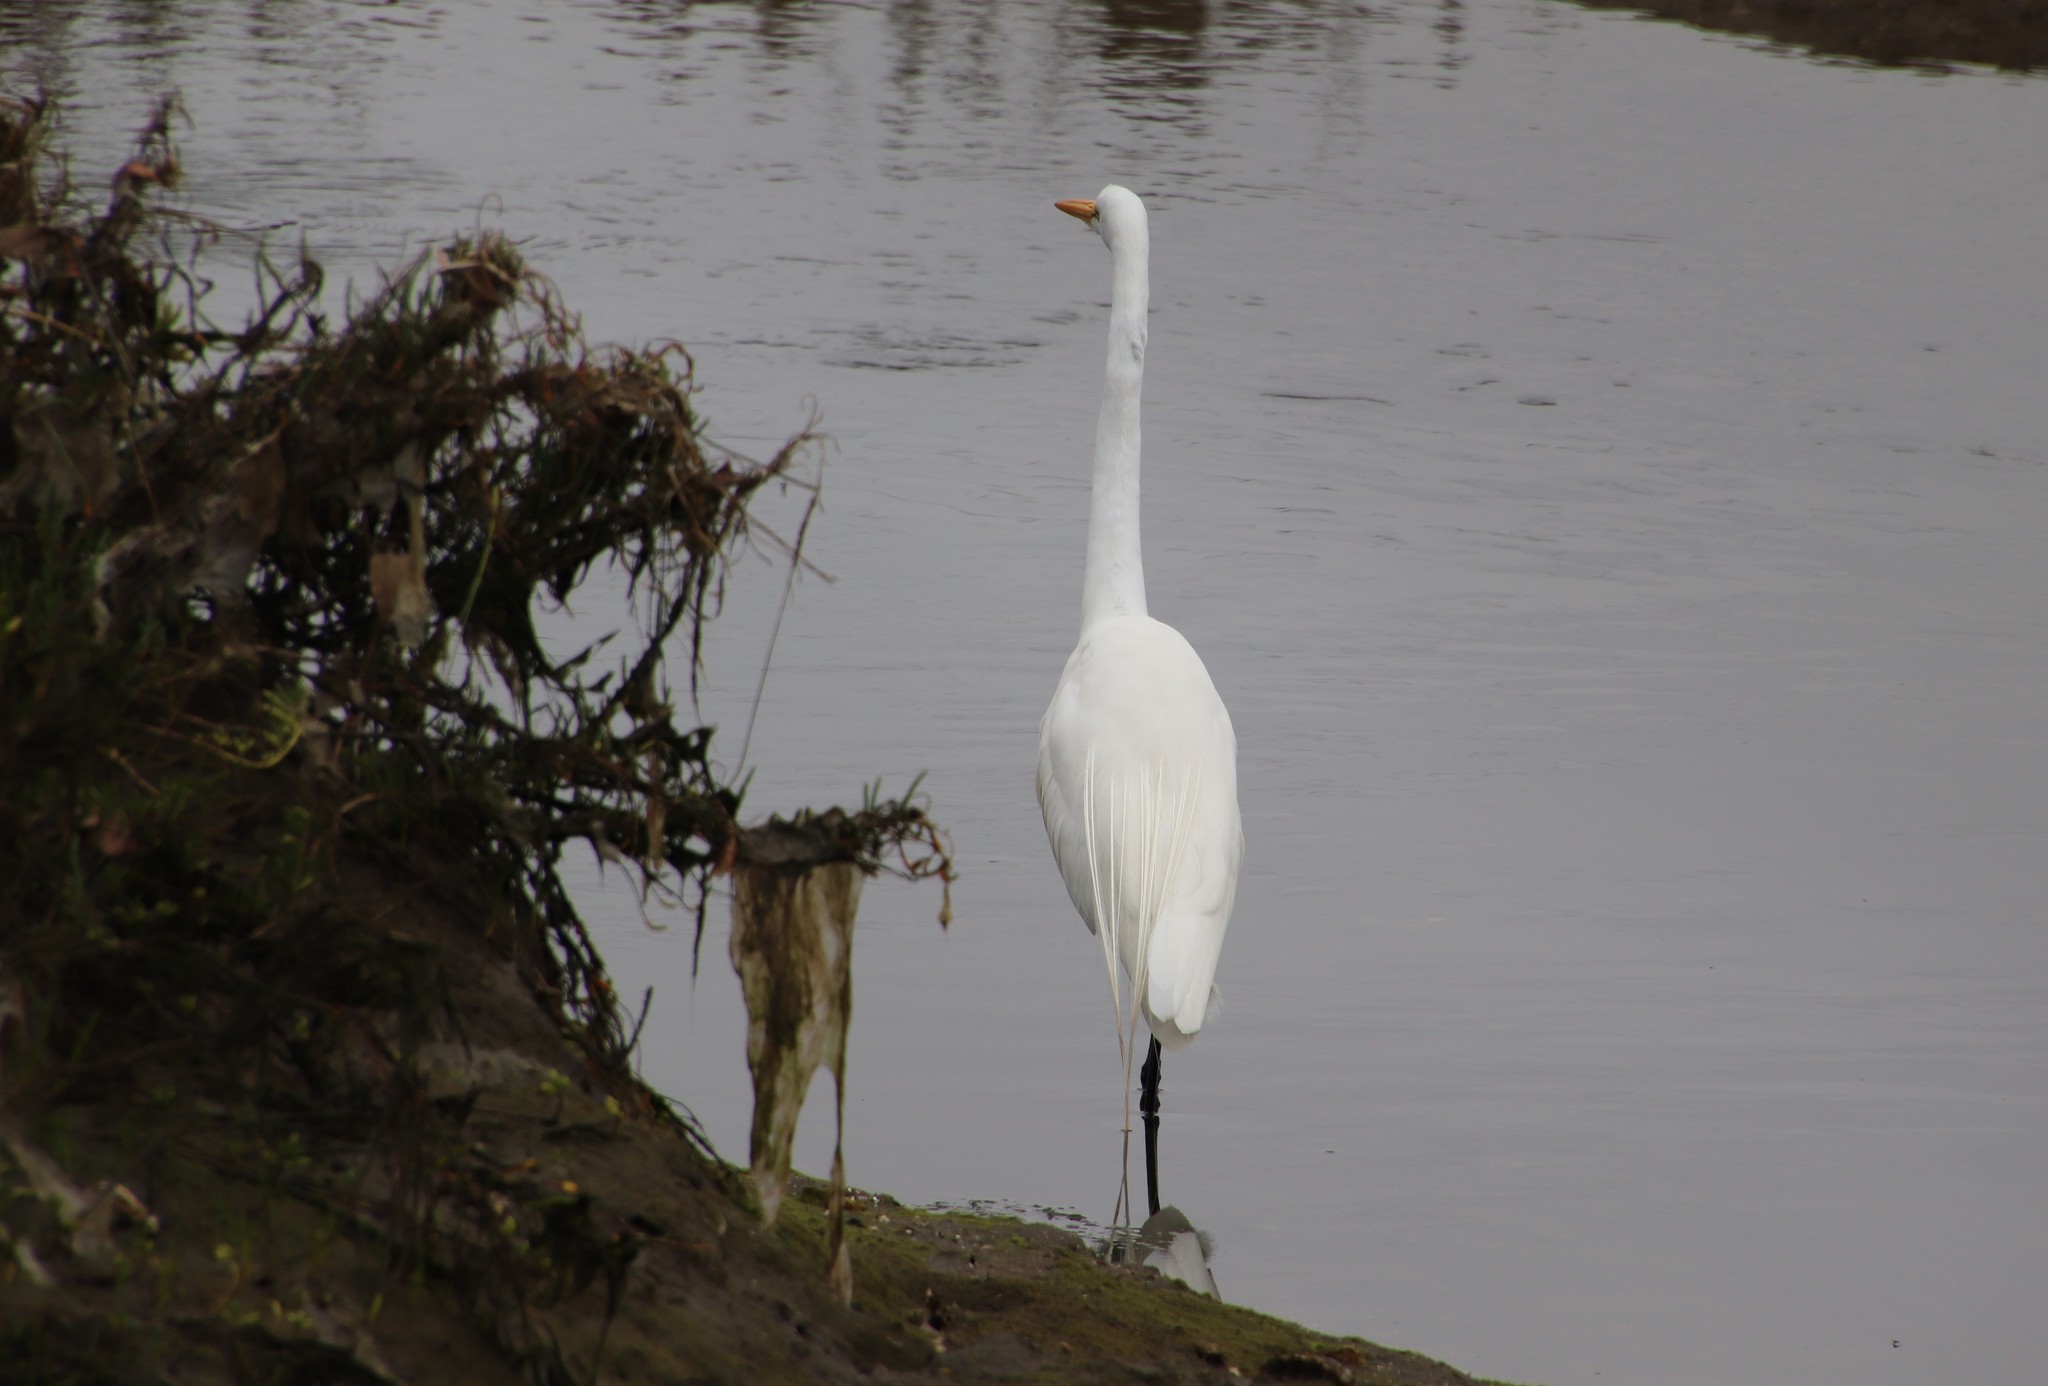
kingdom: Animalia
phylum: Chordata
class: Aves
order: Pelecaniformes
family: Ardeidae
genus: Ardea
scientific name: Ardea alba
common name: Great egret
